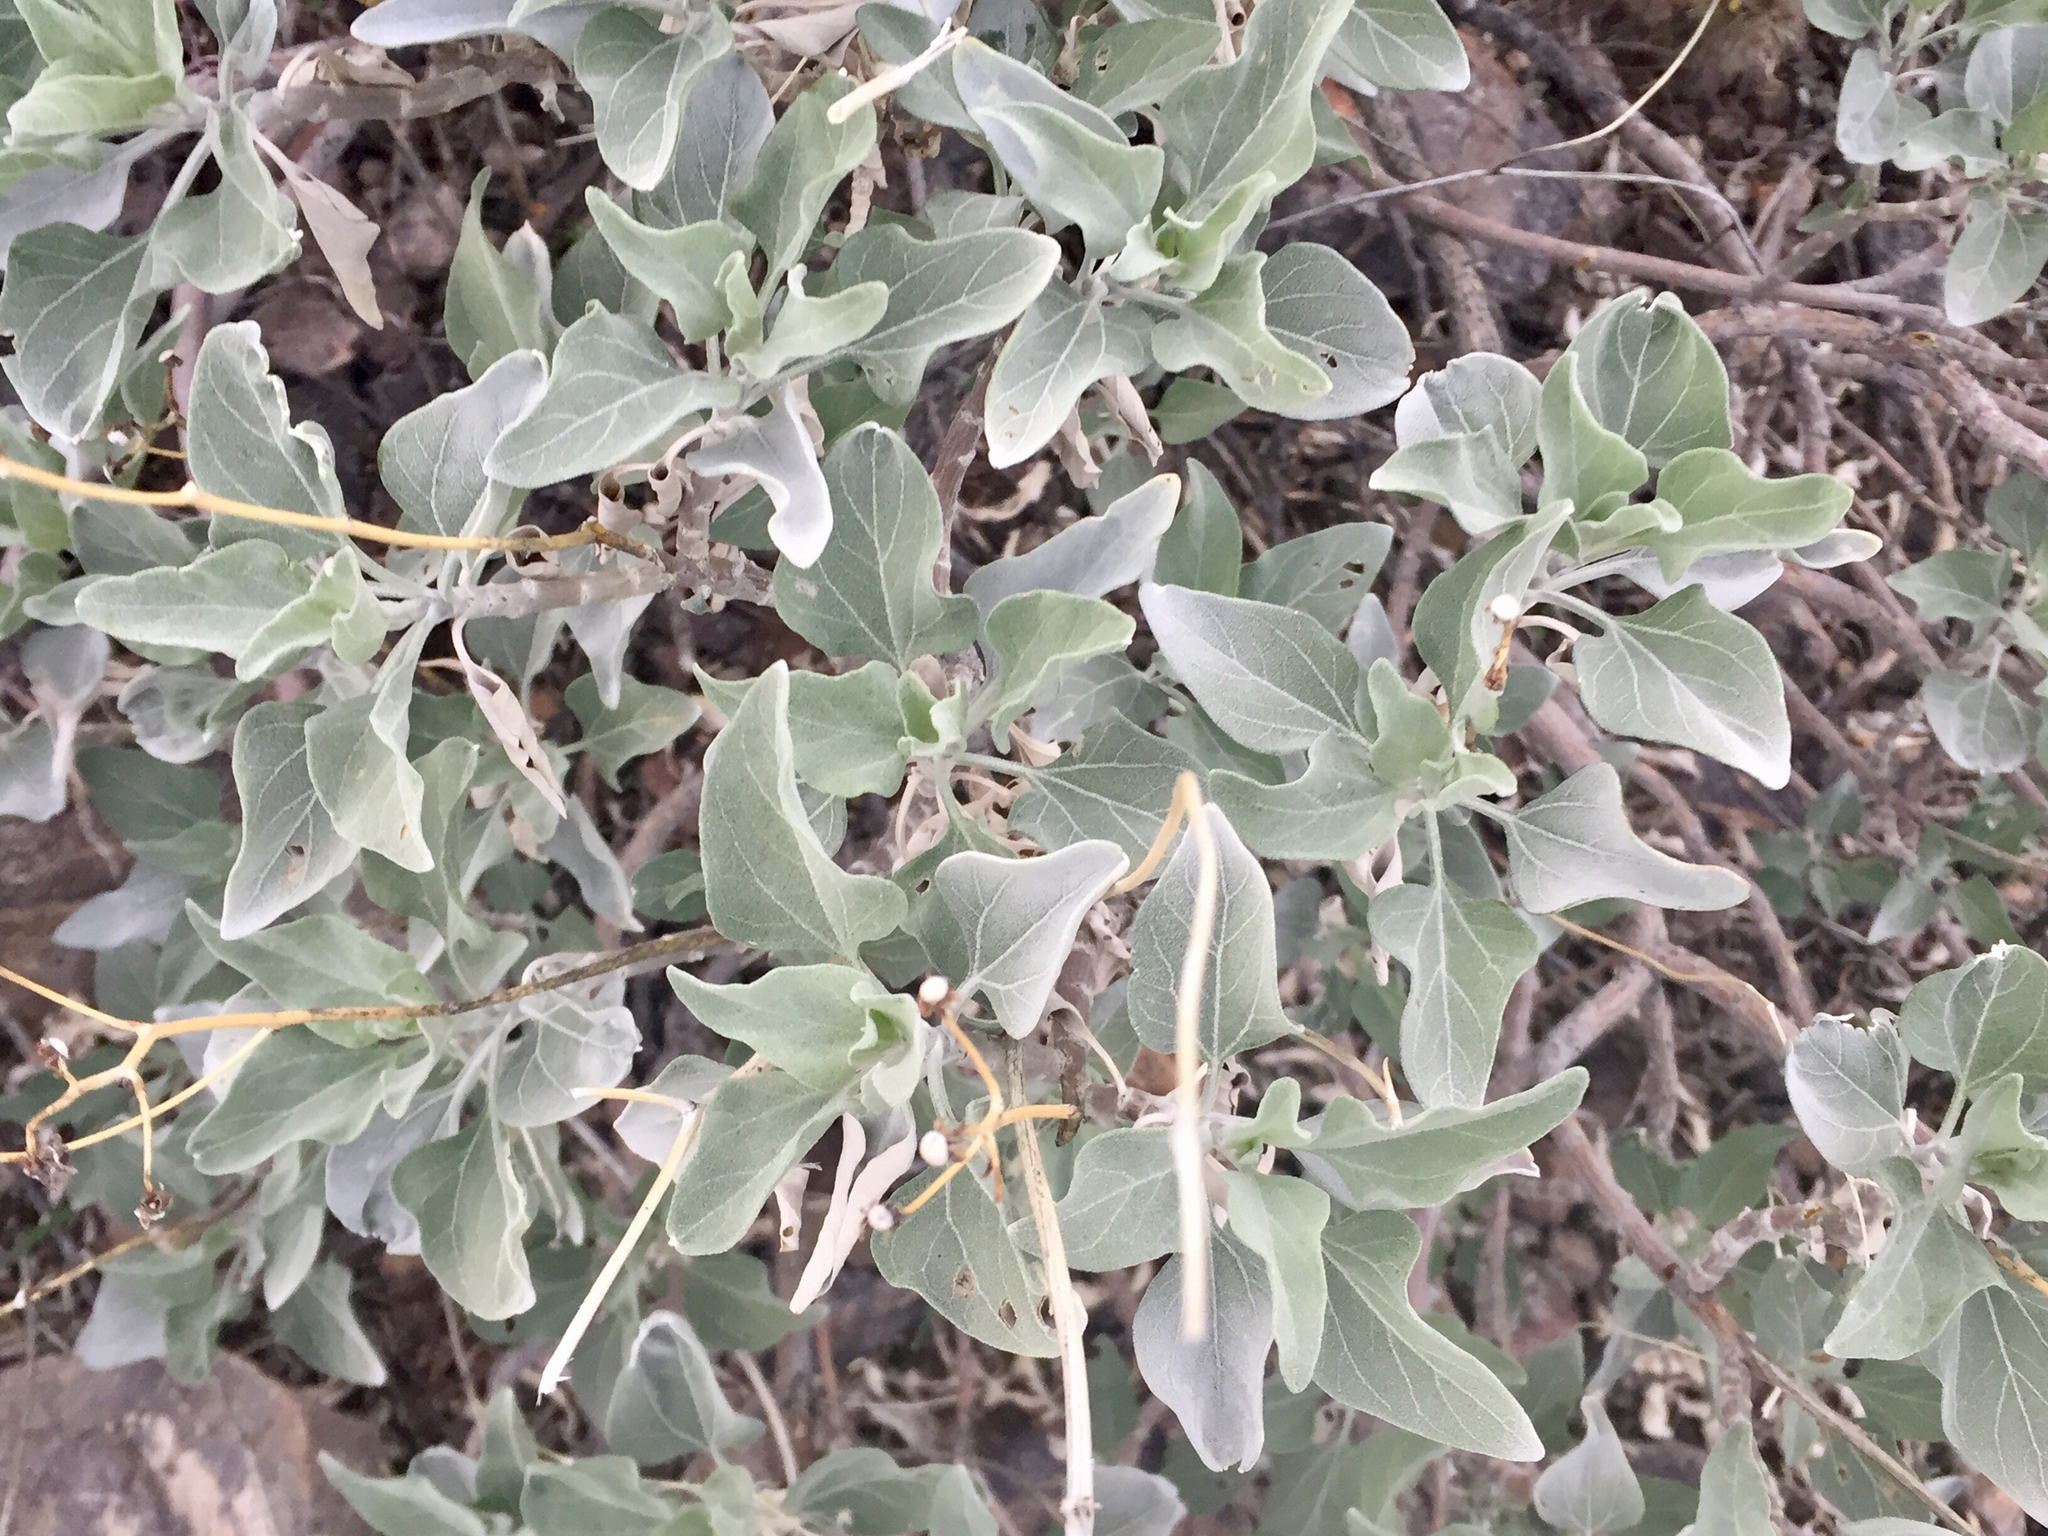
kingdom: Plantae
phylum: Tracheophyta
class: Magnoliopsida
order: Asterales
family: Asteraceae
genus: Encelia
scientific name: Encelia farinosa
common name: Brittlebush
